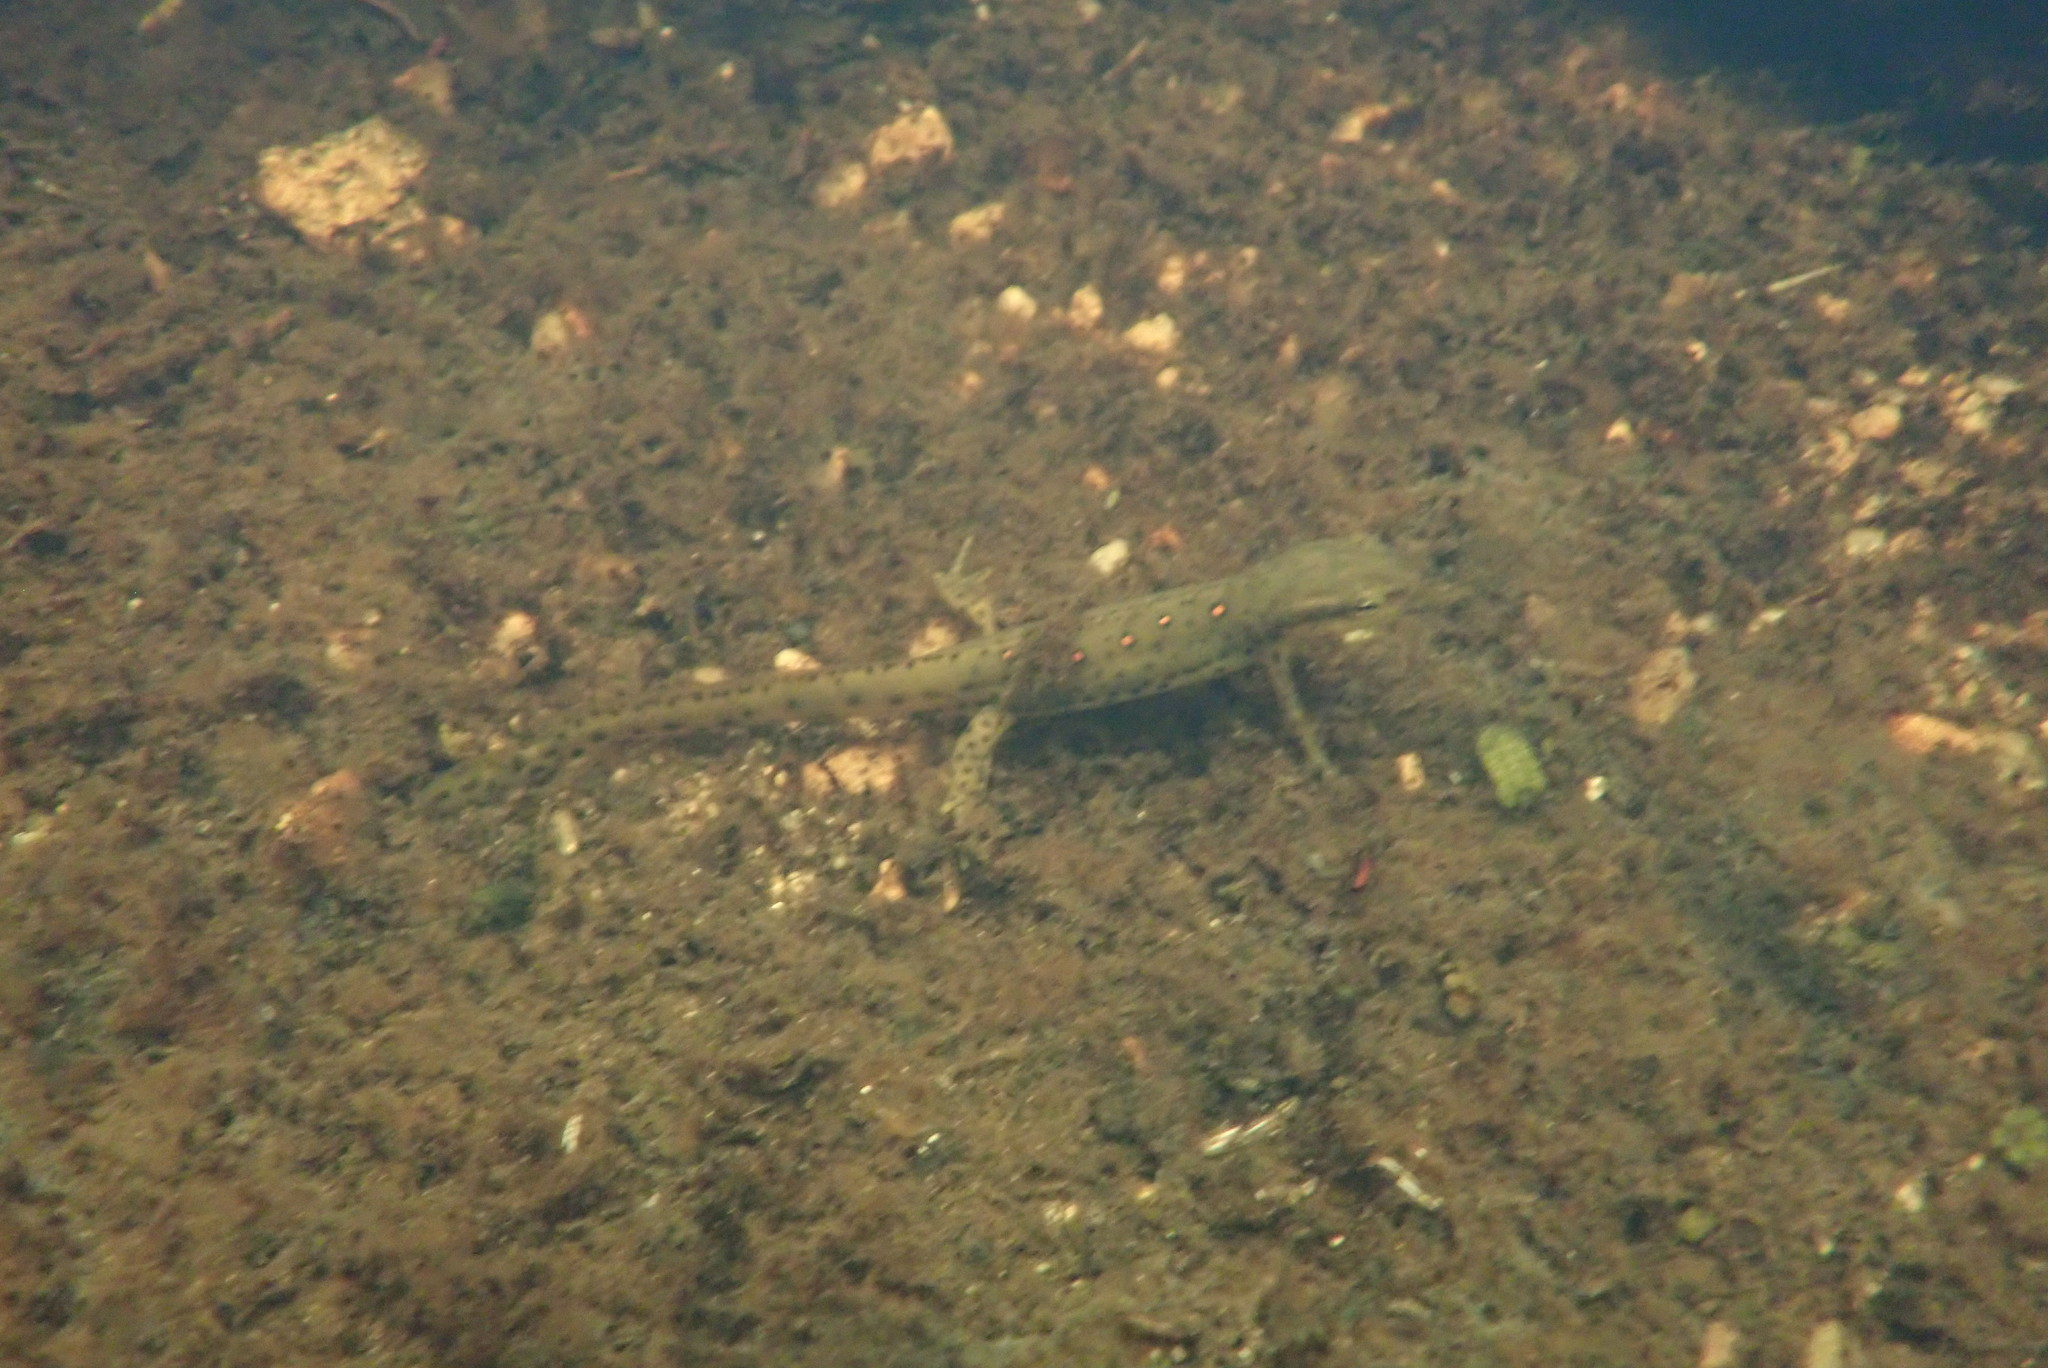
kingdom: Animalia
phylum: Chordata
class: Amphibia
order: Caudata
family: Salamandridae
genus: Notophthalmus
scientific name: Notophthalmus viridescens
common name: Eastern newt
